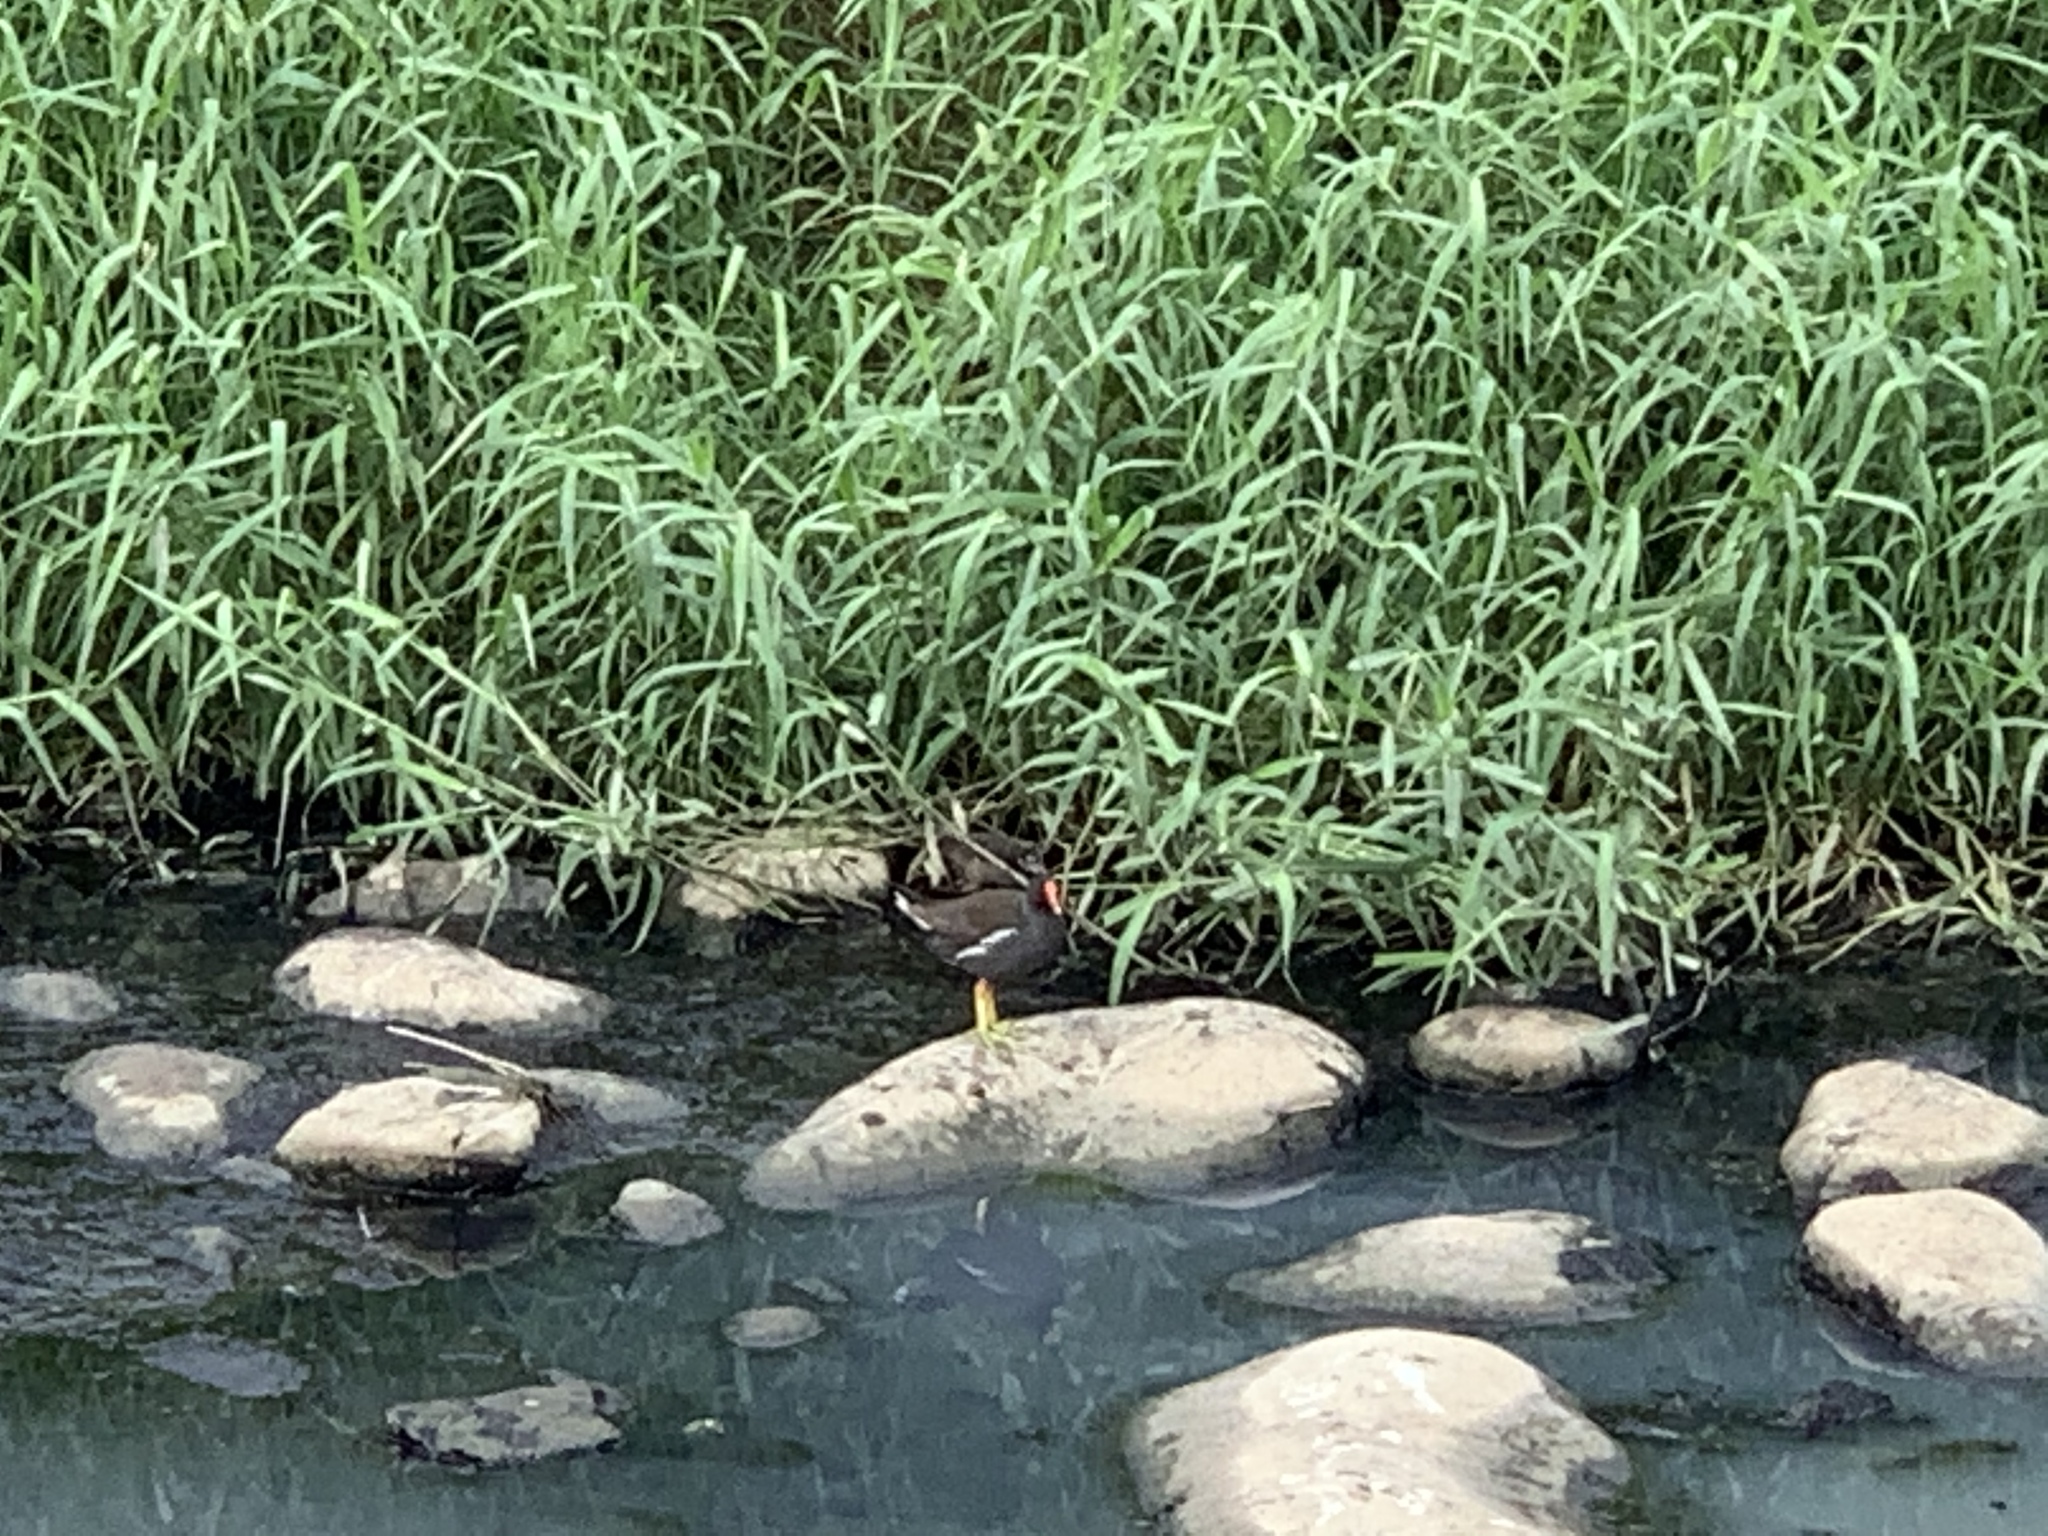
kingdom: Animalia
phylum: Chordata
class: Aves
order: Gruiformes
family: Rallidae
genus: Gallinula
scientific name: Gallinula chloropus
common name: Common moorhen
